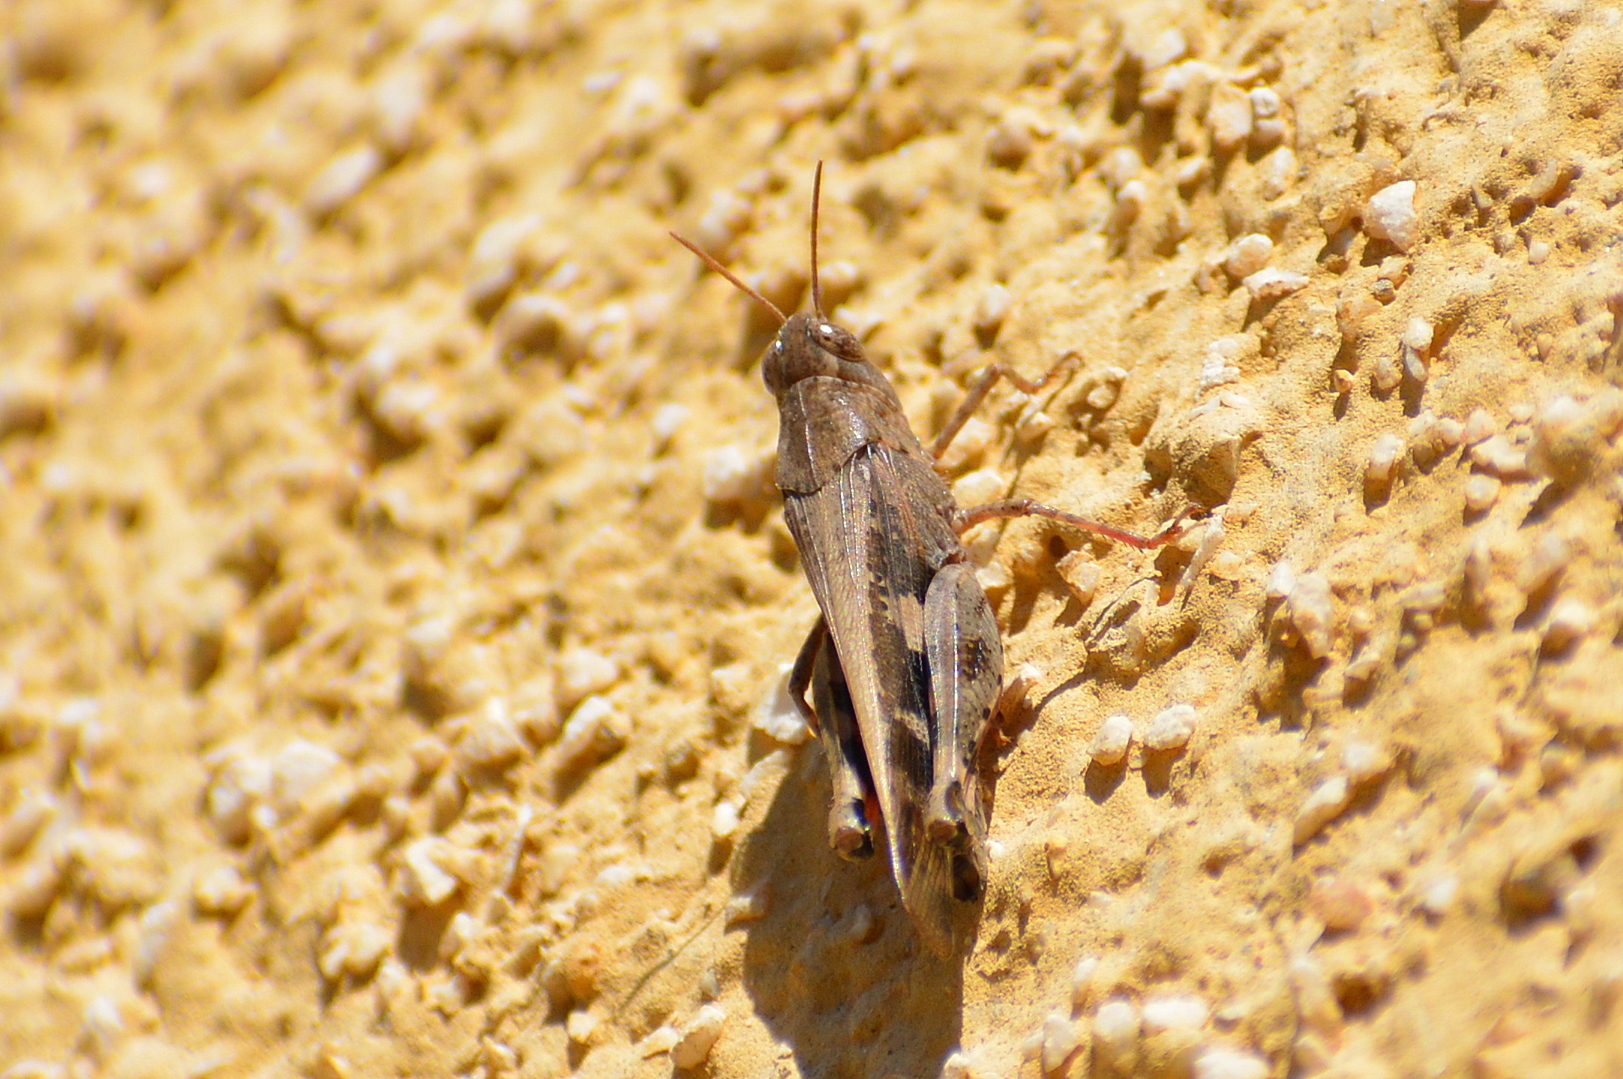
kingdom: Animalia
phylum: Arthropoda
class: Insecta
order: Orthoptera
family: Acrididae
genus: Aiolopus
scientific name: Aiolopus strepens
